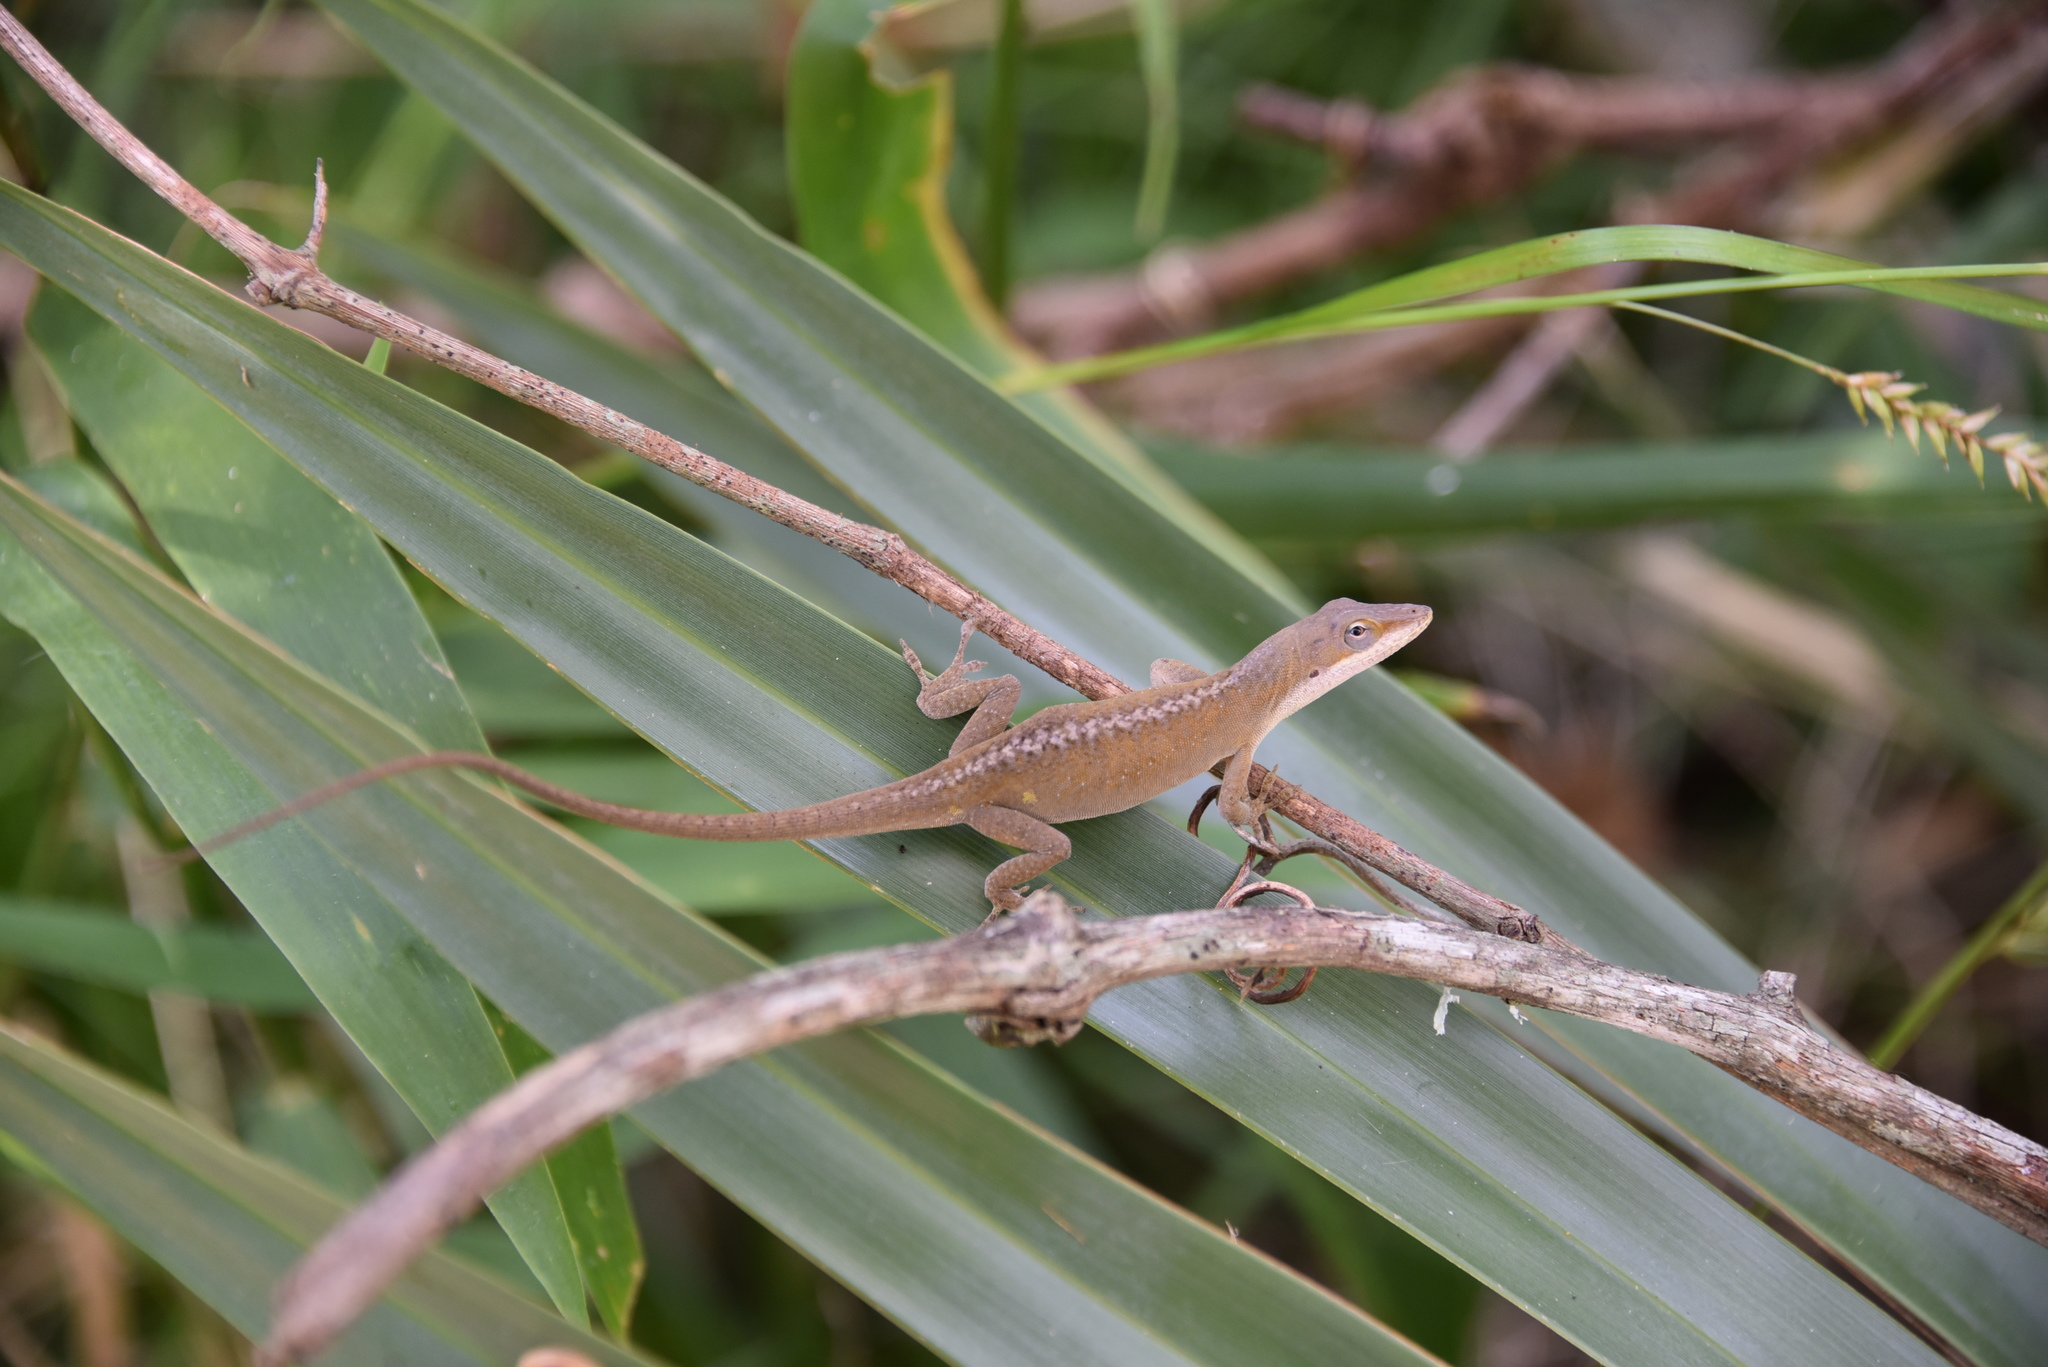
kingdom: Animalia
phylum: Chordata
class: Squamata
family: Dactyloidae
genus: Anolis
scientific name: Anolis carolinensis
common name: Green anole
